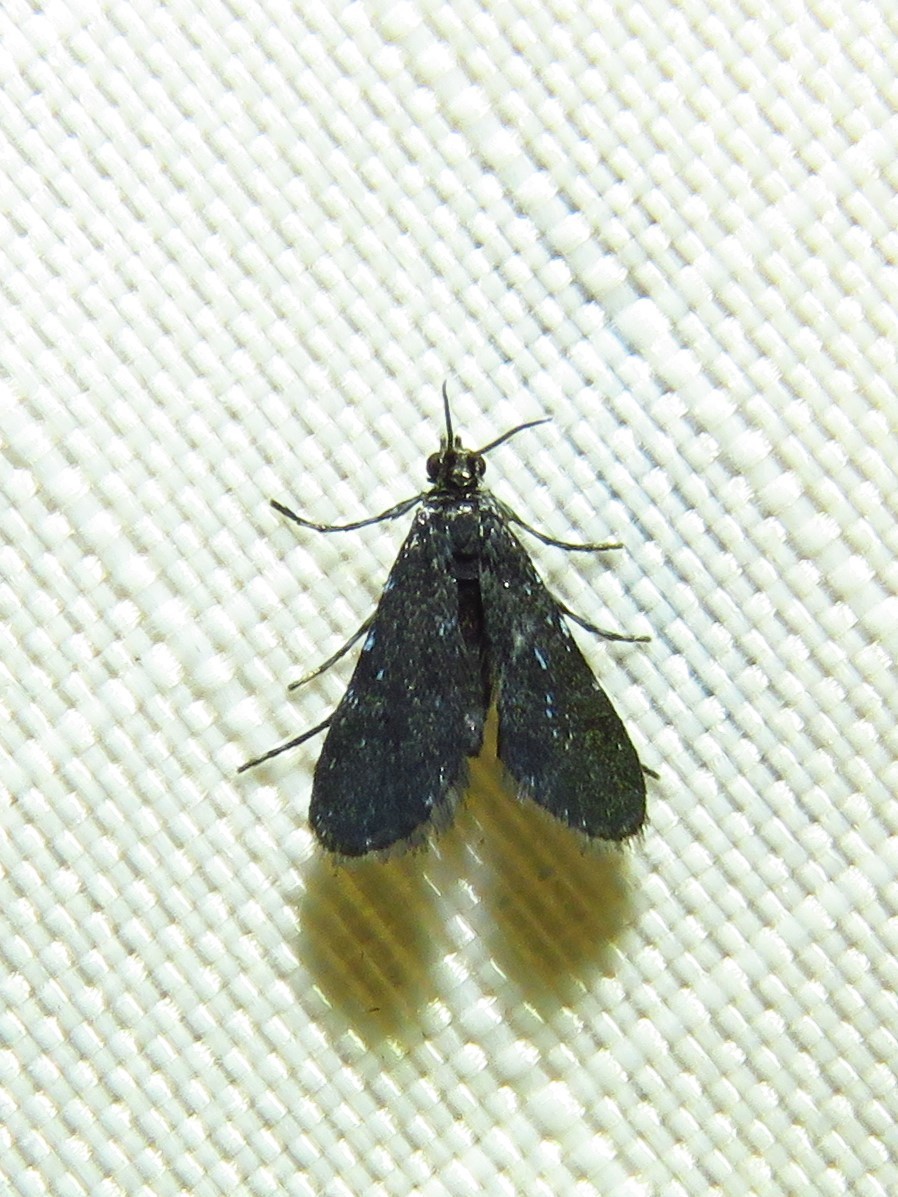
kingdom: Animalia
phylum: Arthropoda
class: Insecta
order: Lepidoptera
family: Crambidae
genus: Elophila
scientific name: Elophila tinealis
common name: Black duckweed moth
